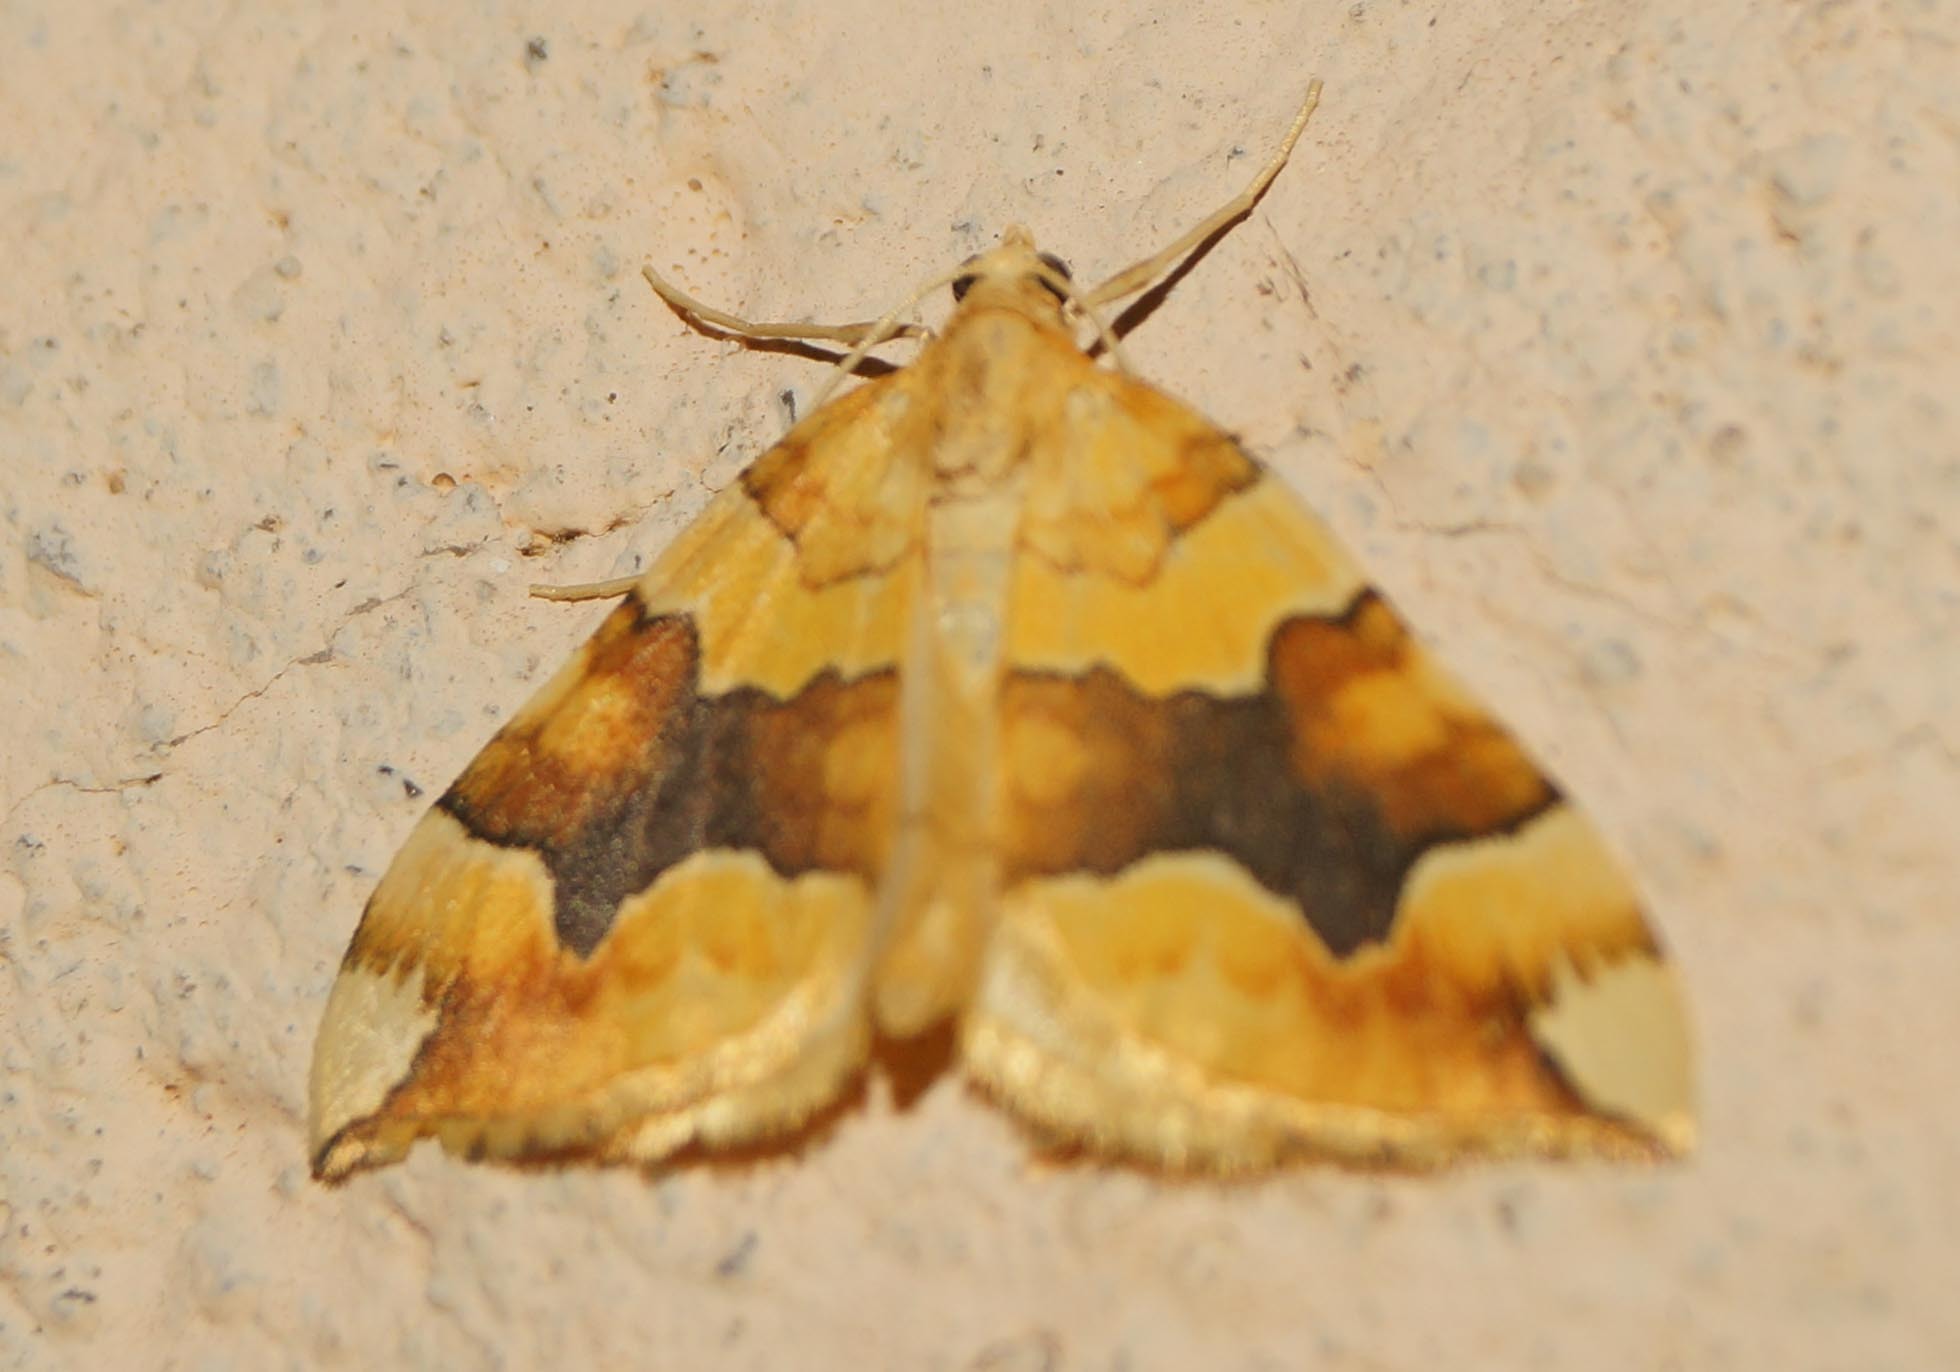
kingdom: Animalia
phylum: Arthropoda
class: Insecta
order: Lepidoptera
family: Geometridae
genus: Cidaria
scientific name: Cidaria fulvata
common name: Barred yellow
